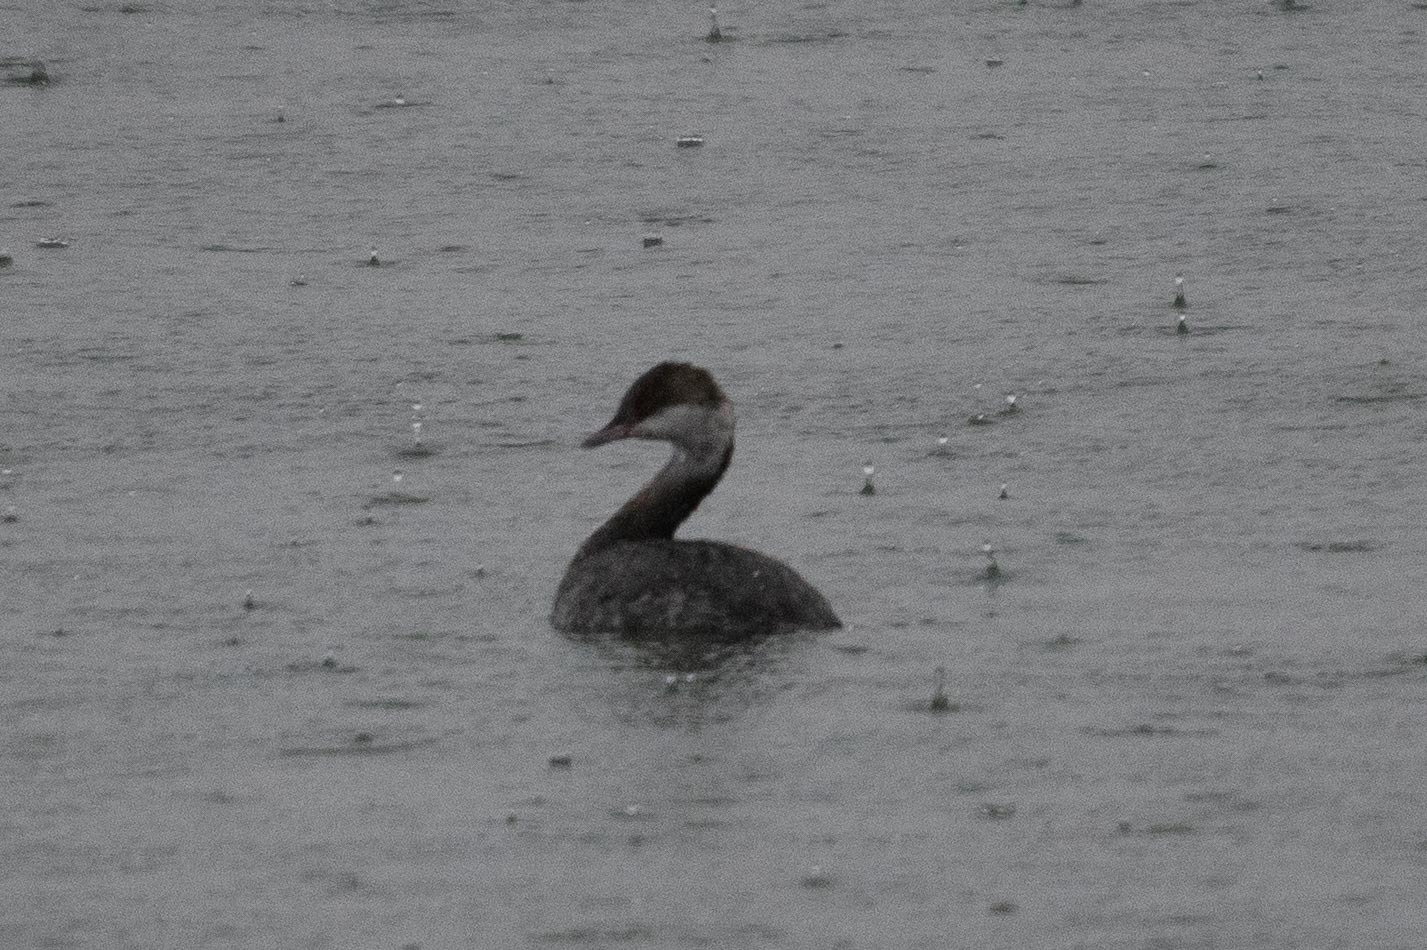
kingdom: Animalia
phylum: Chordata
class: Aves
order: Podicipediformes
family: Podicipedidae
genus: Podiceps
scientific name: Podiceps auritus
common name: Horned grebe
